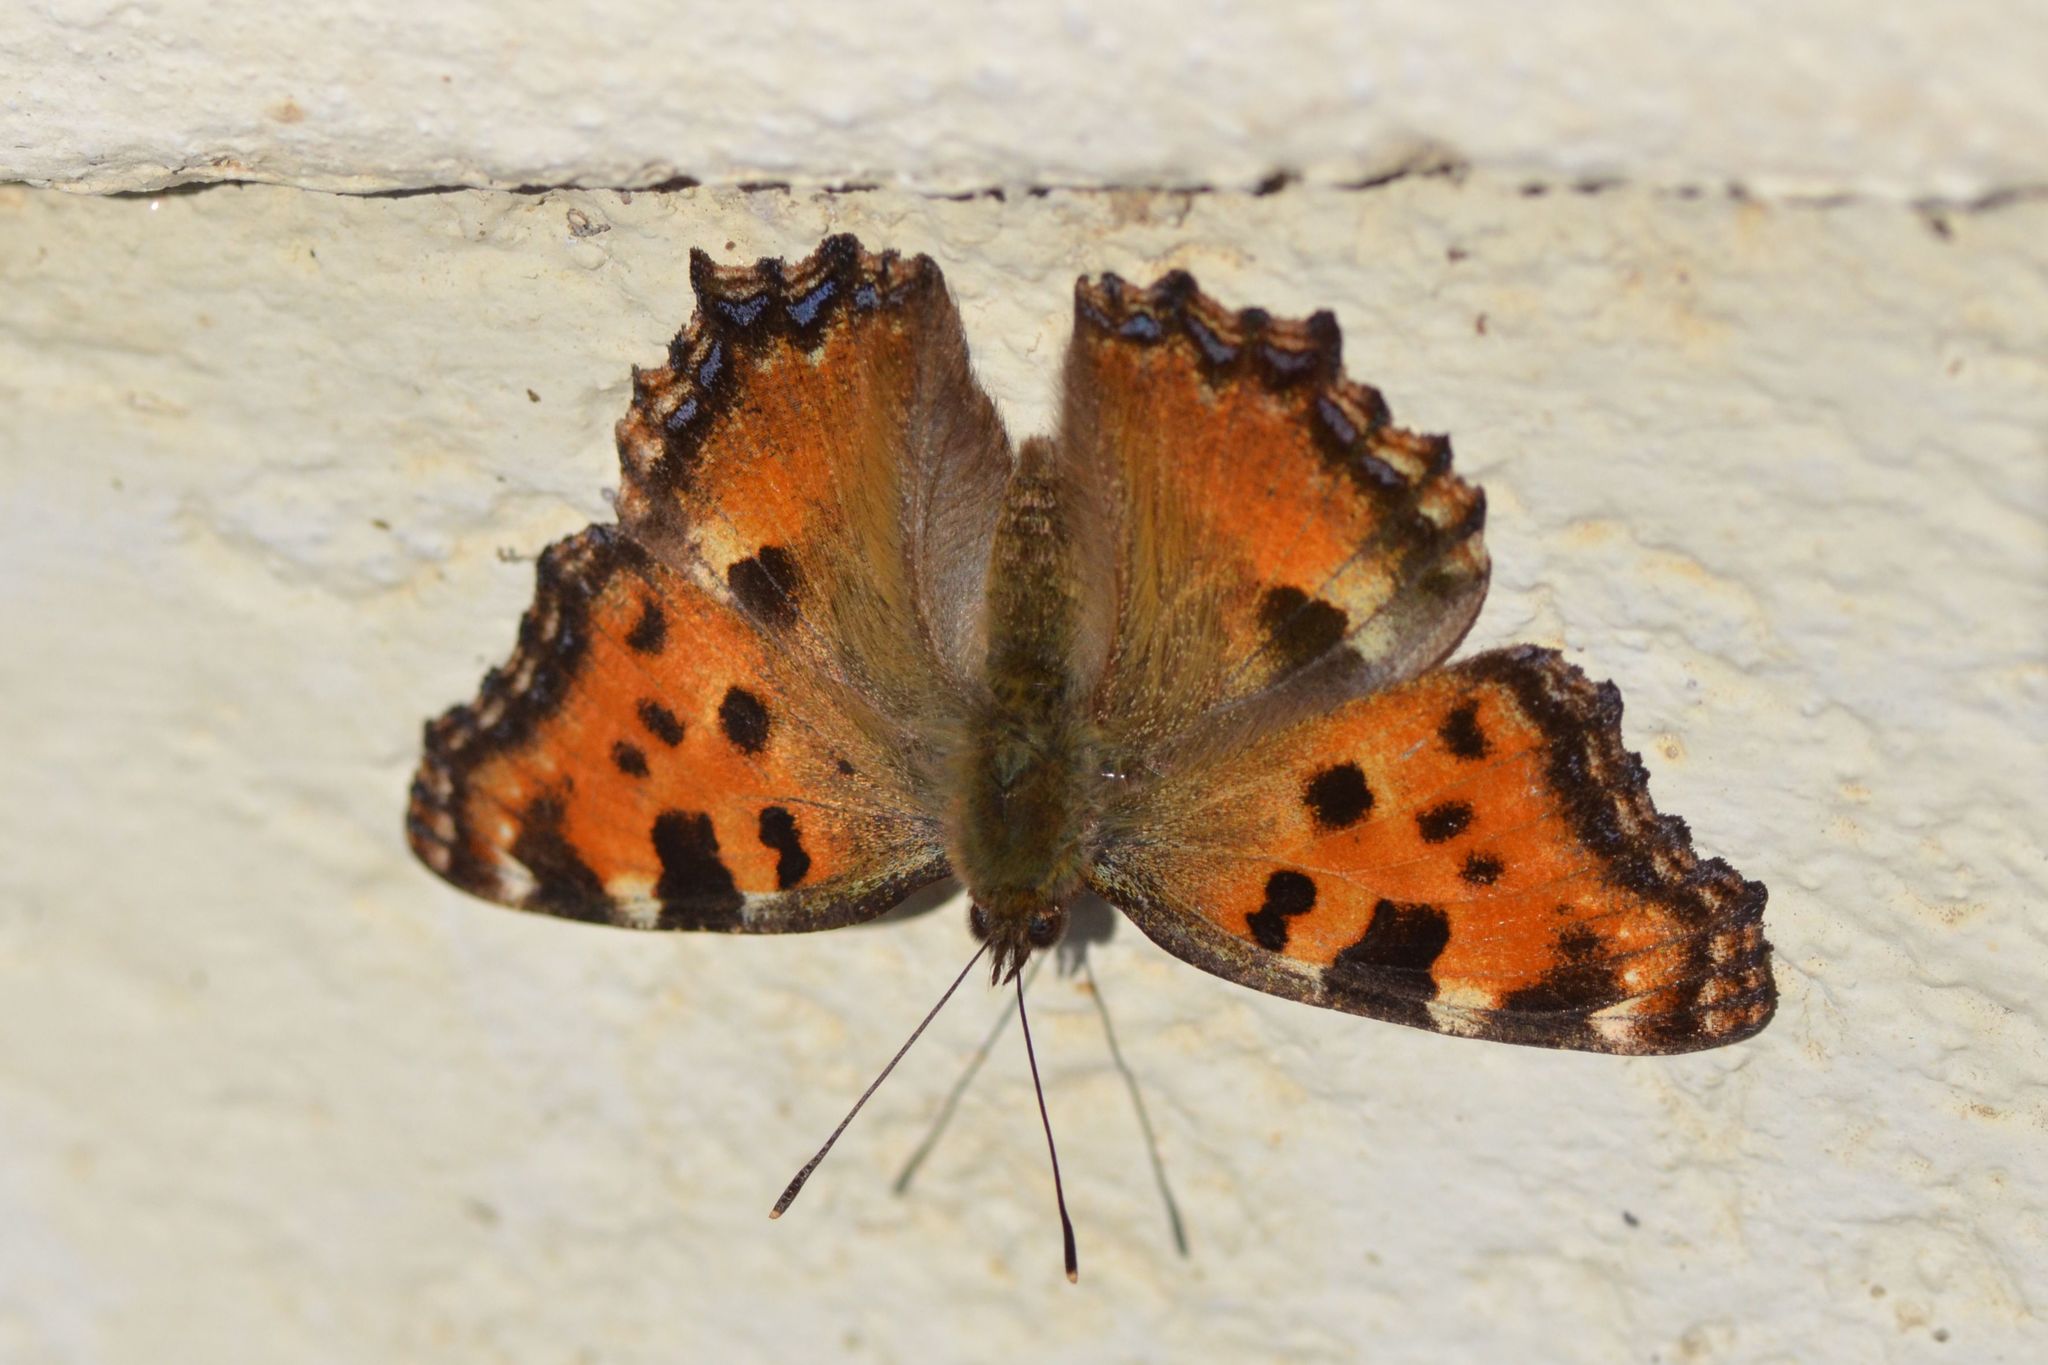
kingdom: Animalia
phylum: Arthropoda
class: Insecta
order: Lepidoptera
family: Nymphalidae
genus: Nymphalis
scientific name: Nymphalis polychloros
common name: Large tortoiseshell
